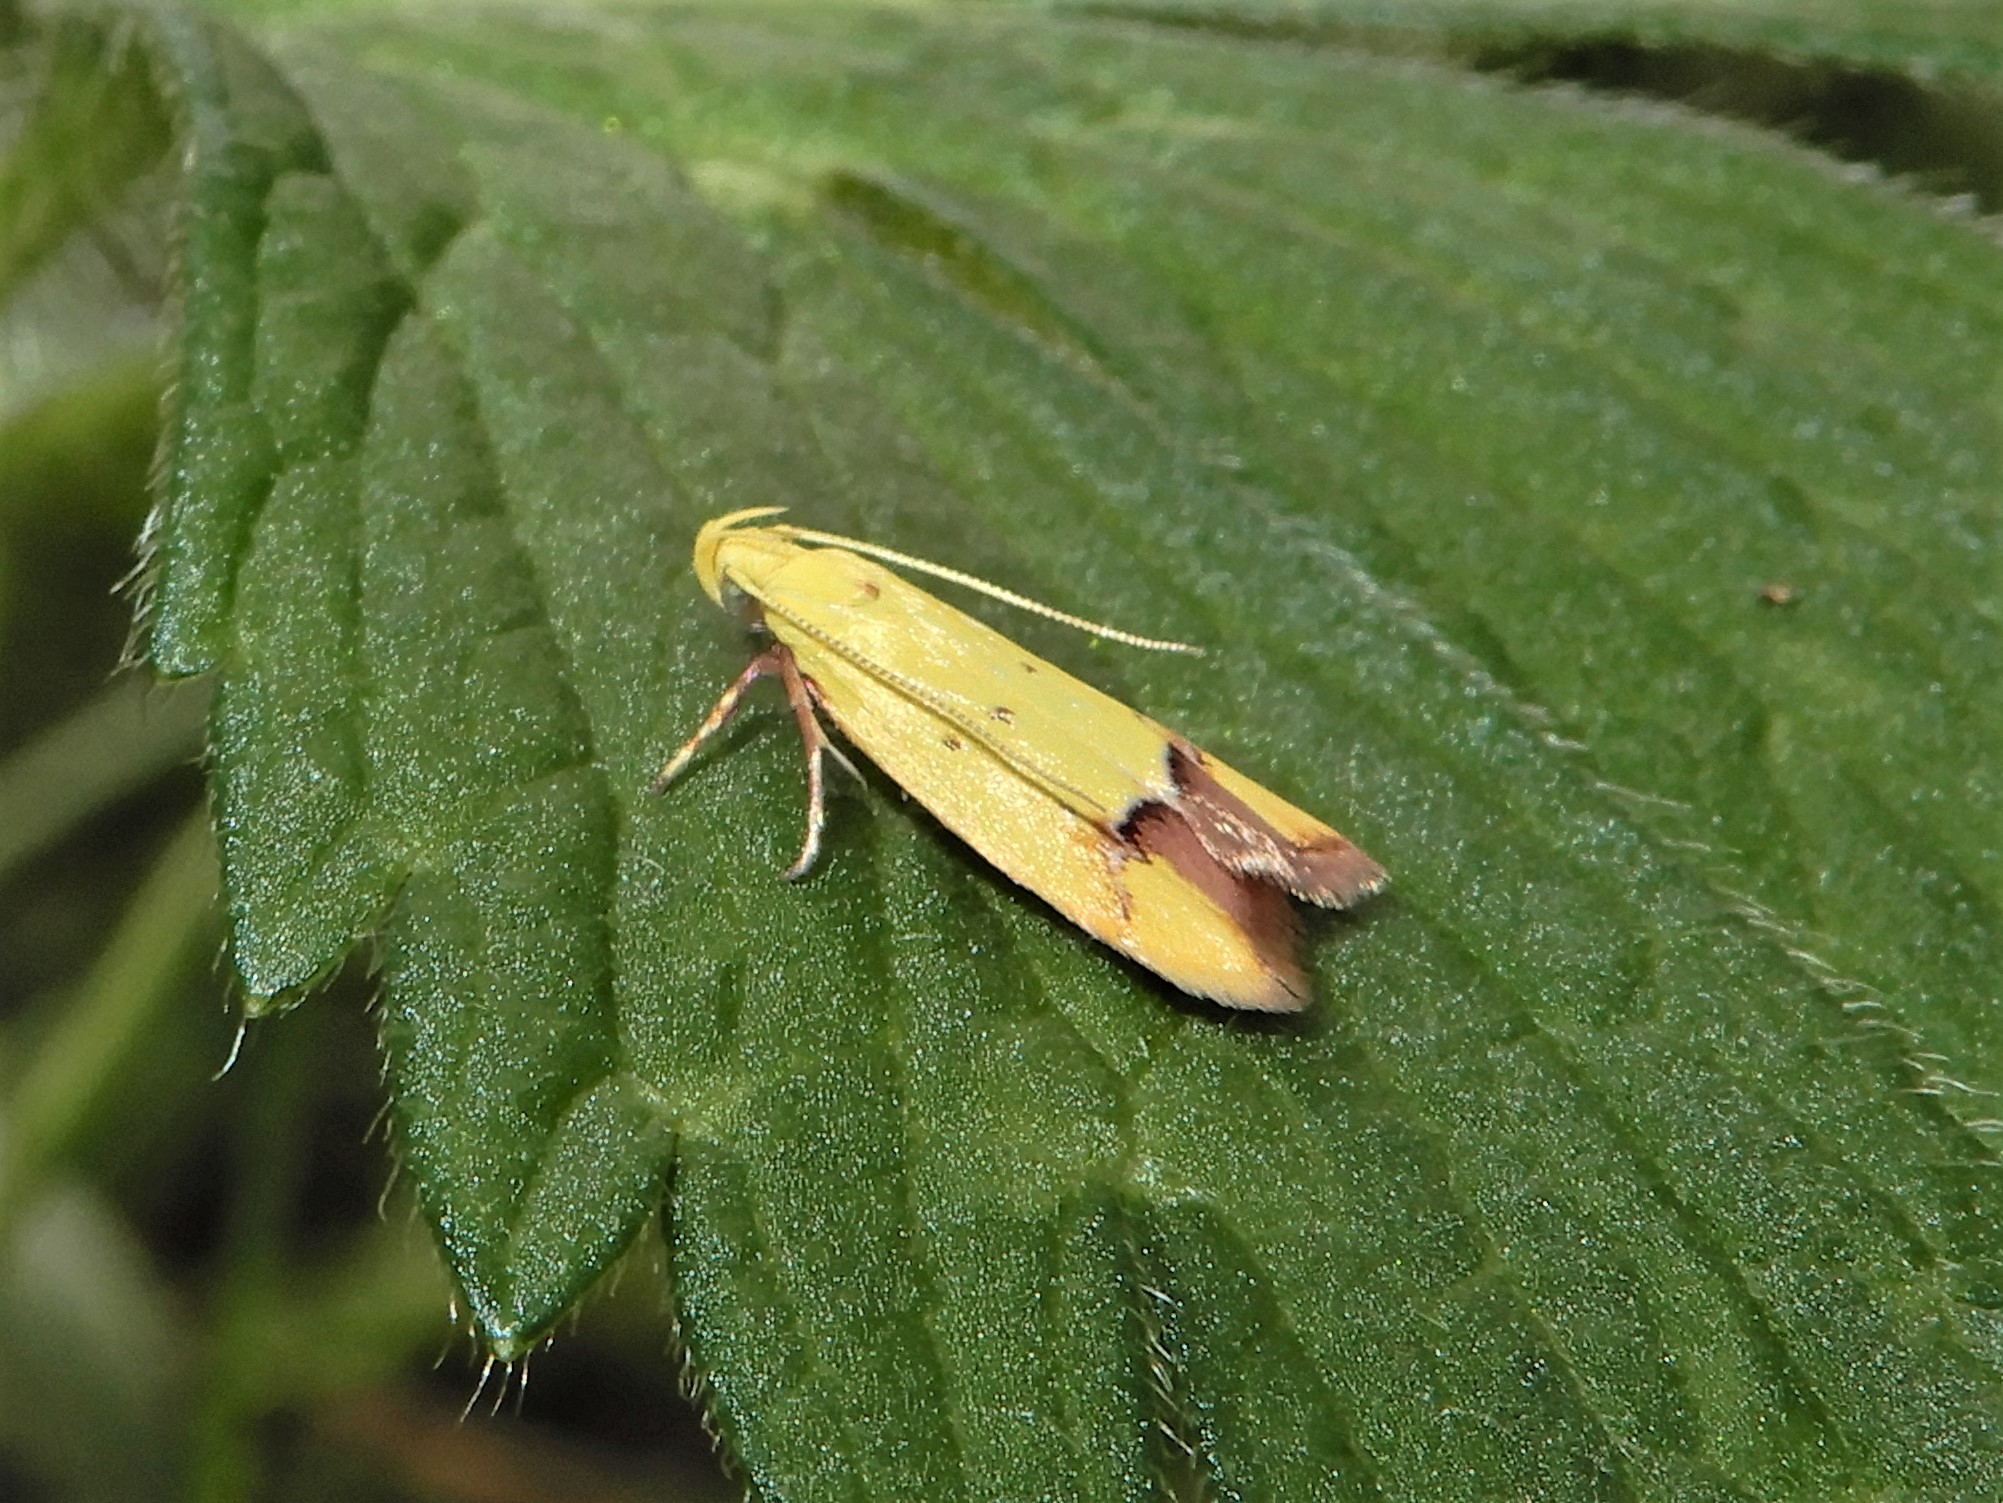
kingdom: Animalia
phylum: Arthropoda
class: Insecta
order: Lepidoptera
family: Oecophoridae
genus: Gymnobathra
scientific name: Gymnobathra flavidella
